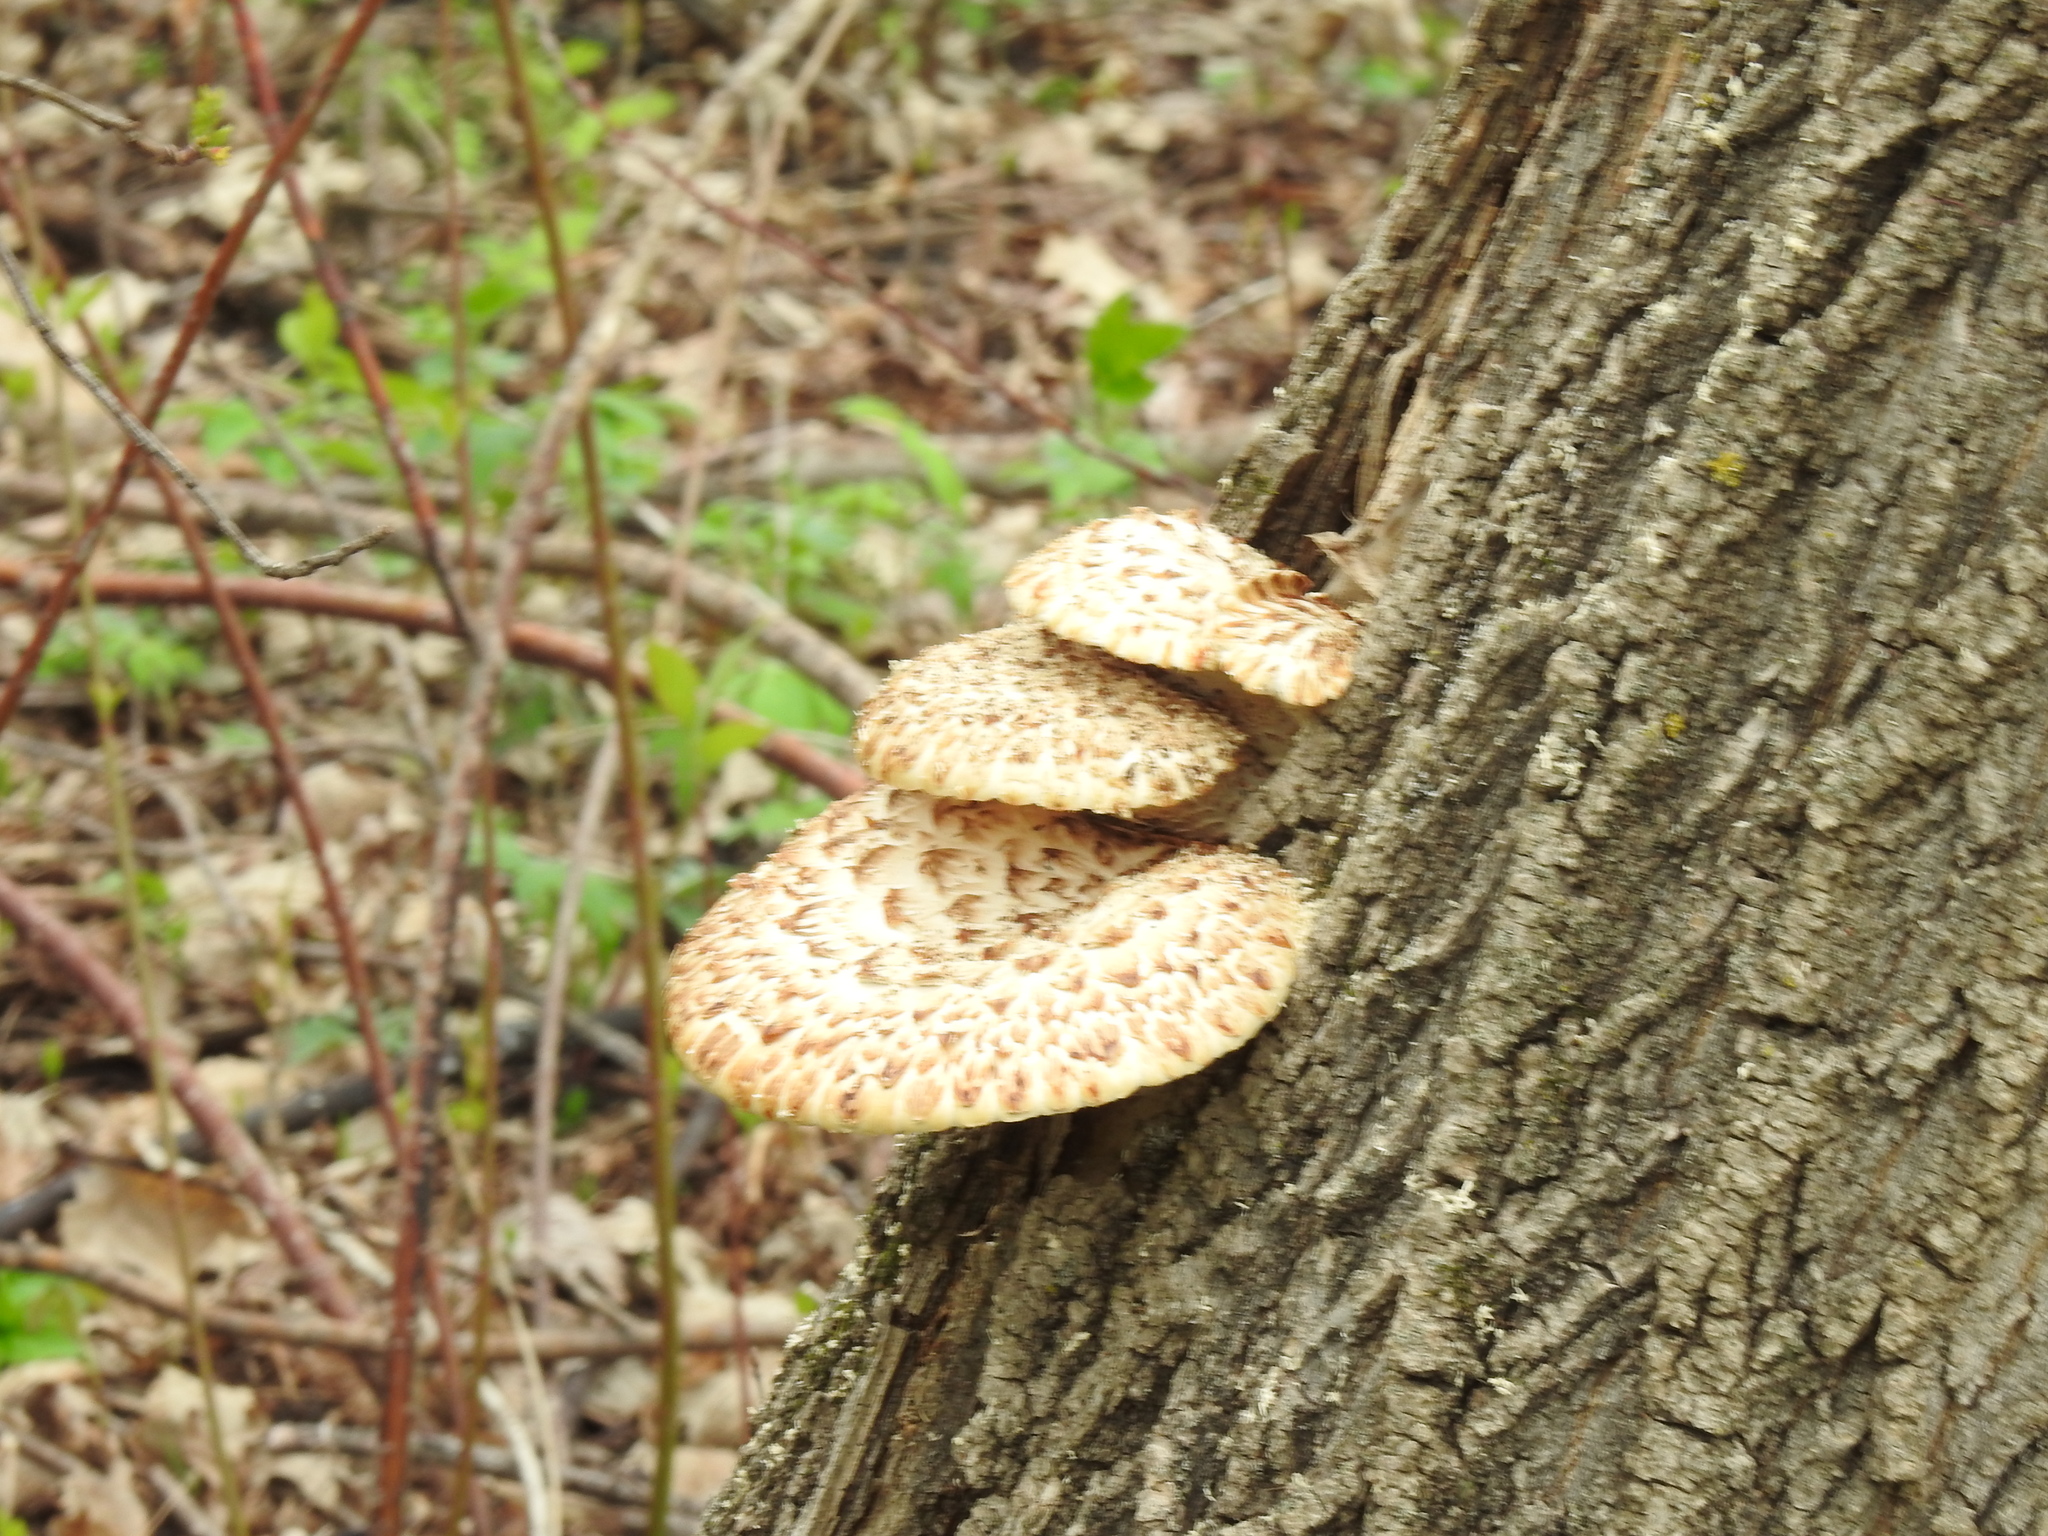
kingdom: Fungi
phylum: Basidiomycota
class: Agaricomycetes
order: Polyporales
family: Polyporaceae
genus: Cerioporus
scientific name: Cerioporus squamosus
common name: Dryad's saddle
